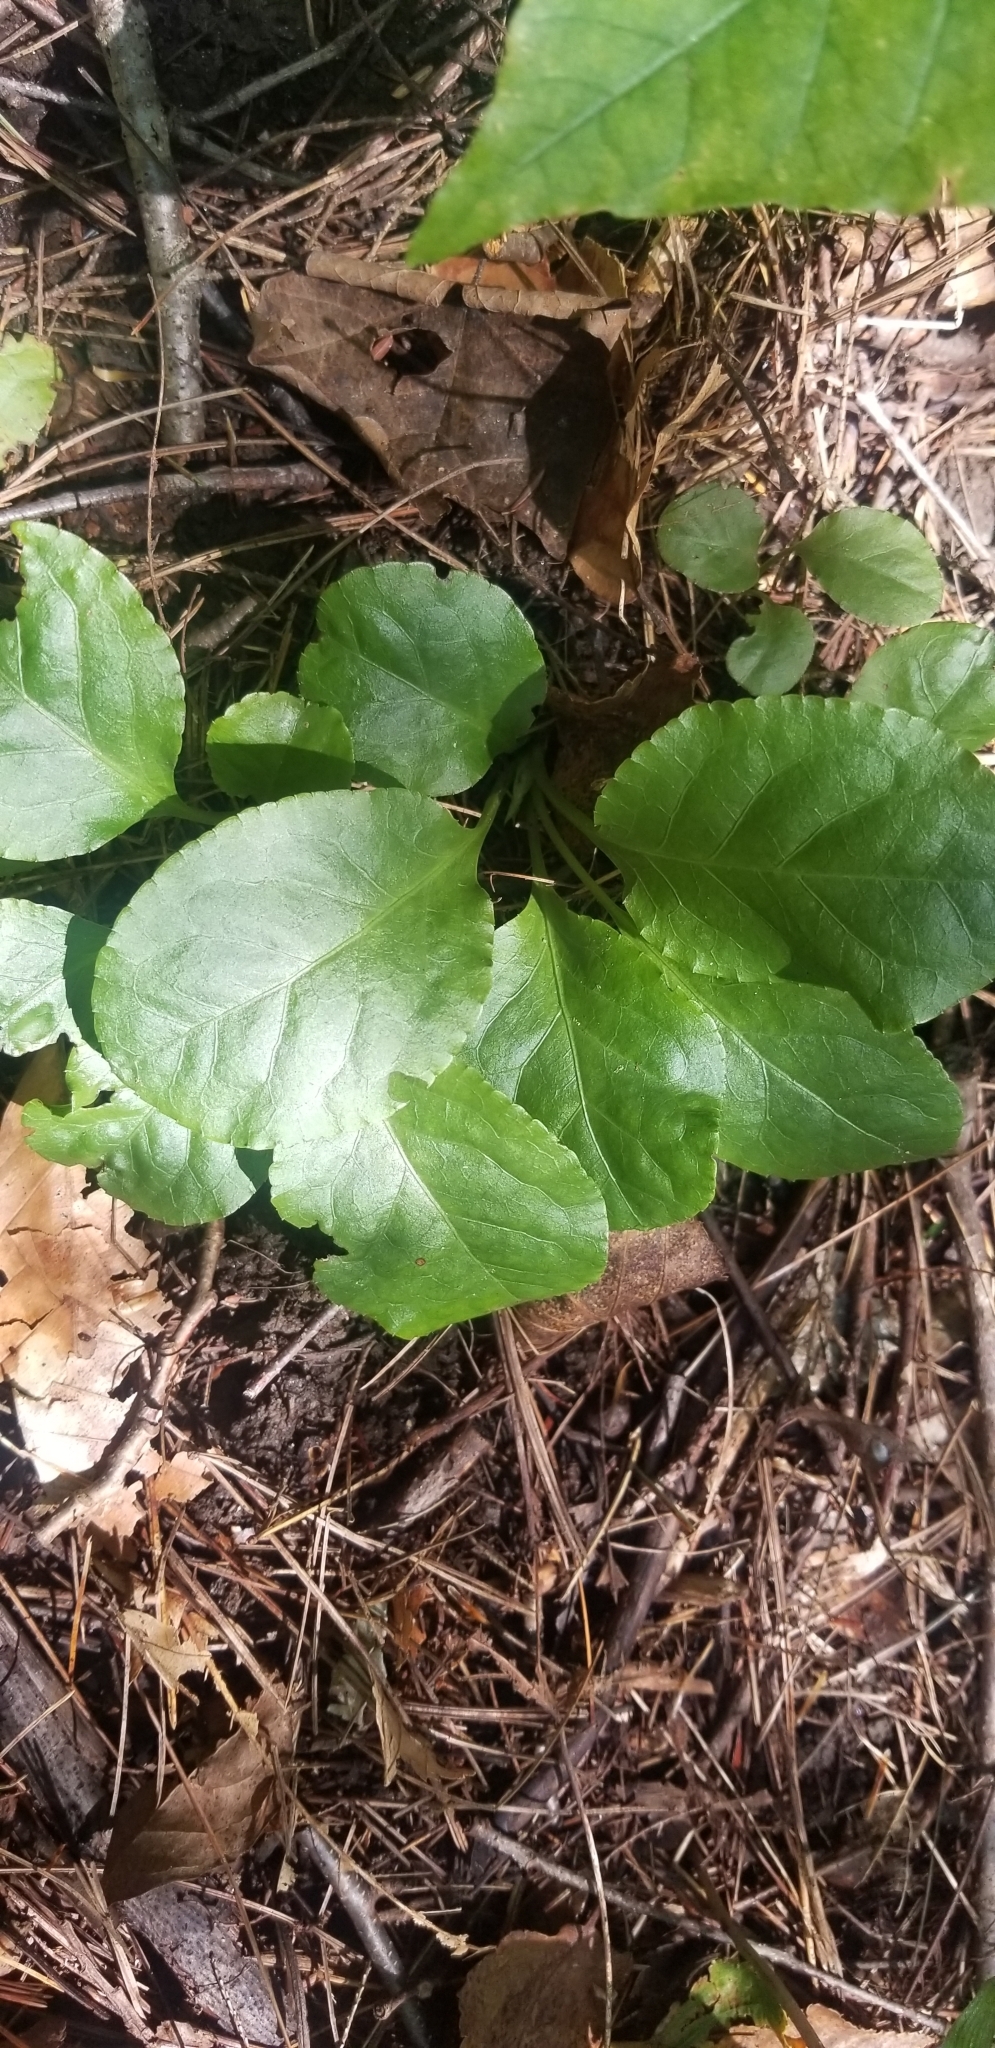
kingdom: Plantae
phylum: Tracheophyta
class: Magnoliopsida
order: Ericales
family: Ericaceae
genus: Pyrola
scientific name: Pyrola elliptica
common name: Shinleaf
